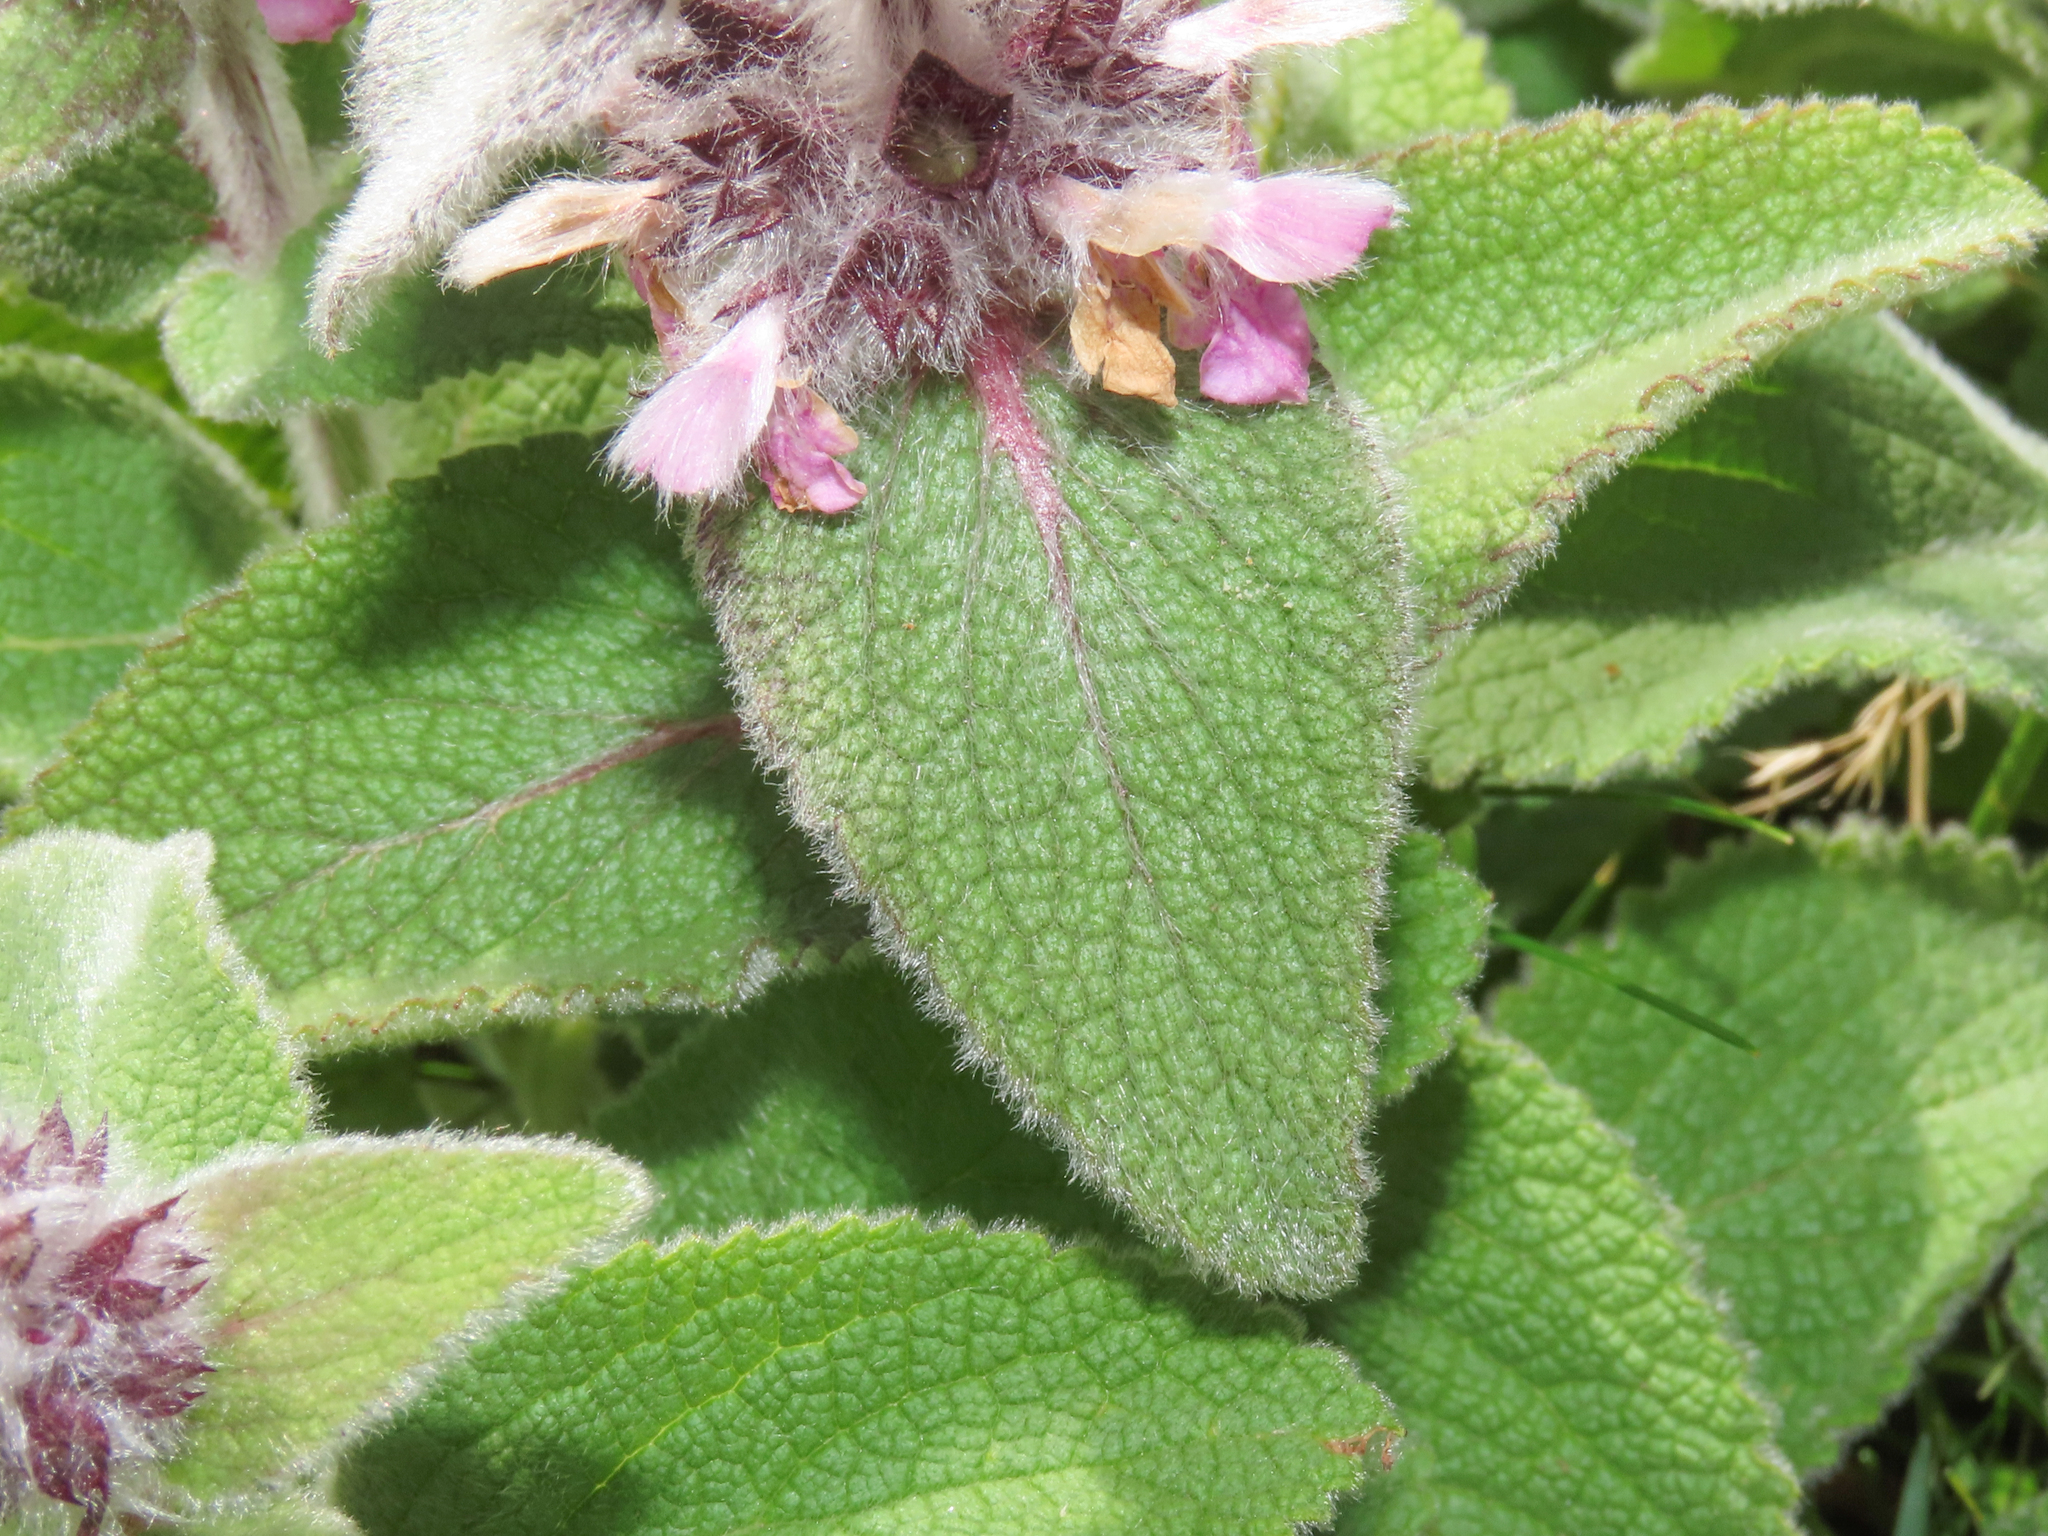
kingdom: Plantae
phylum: Tracheophyta
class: Magnoliopsida
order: Lamiales
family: Lamiaceae
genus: Stachys
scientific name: Stachys germanica
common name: Downy woundwort
